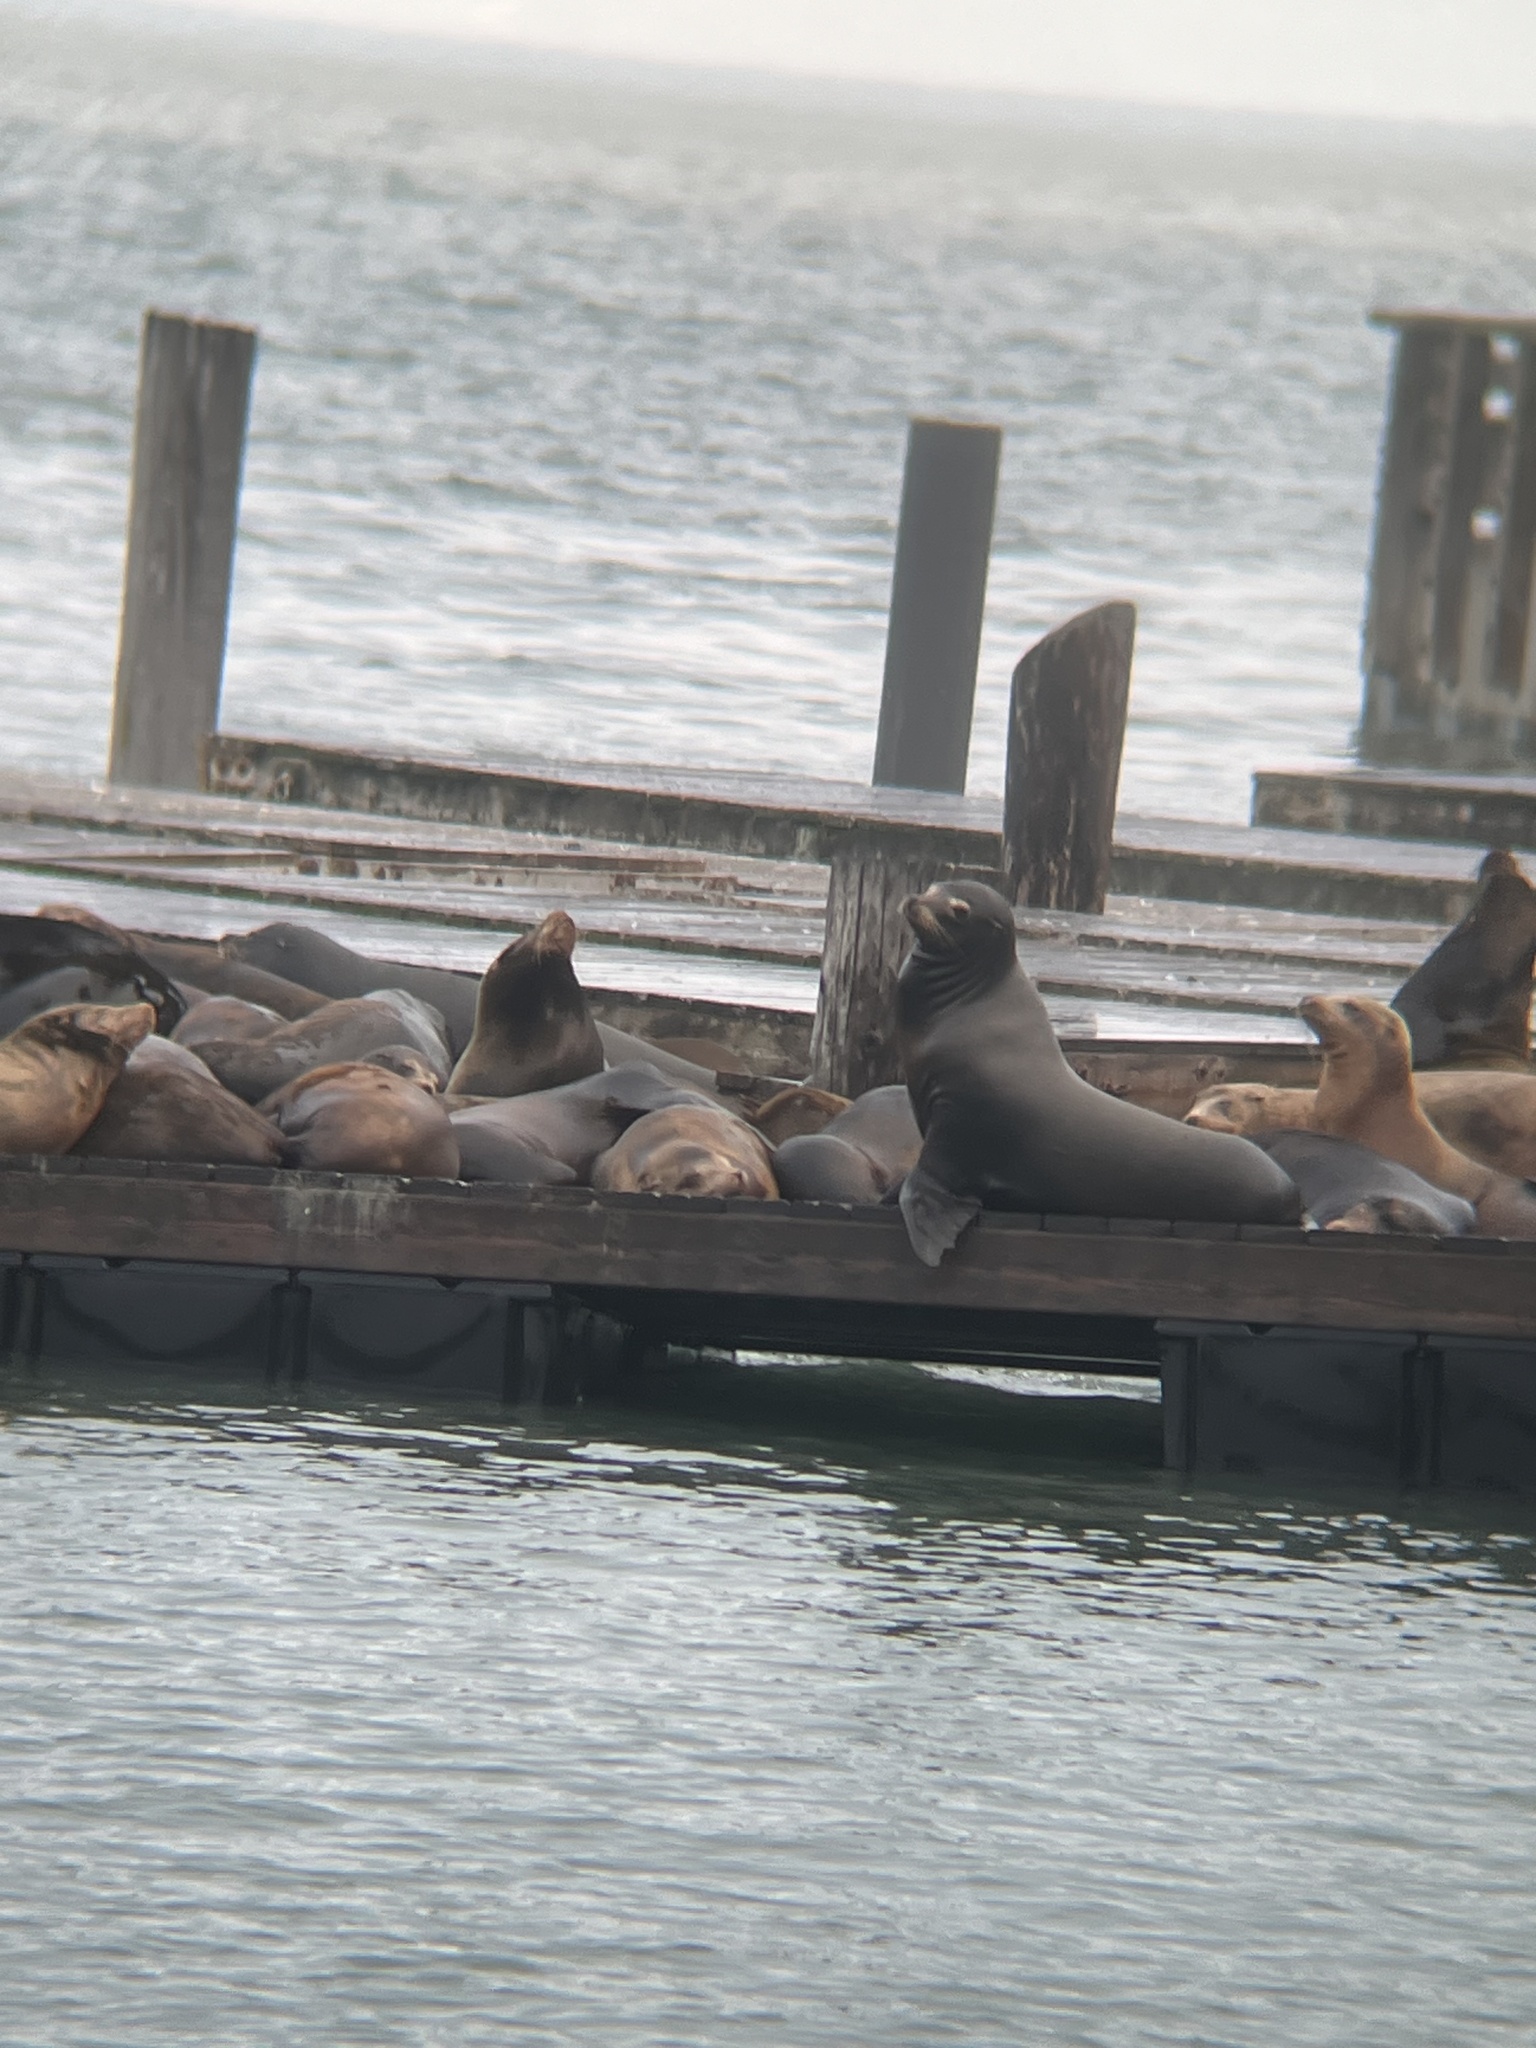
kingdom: Animalia
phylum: Chordata
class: Mammalia
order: Carnivora
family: Otariidae
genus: Zalophus
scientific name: Zalophus californianus
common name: California sea lion
